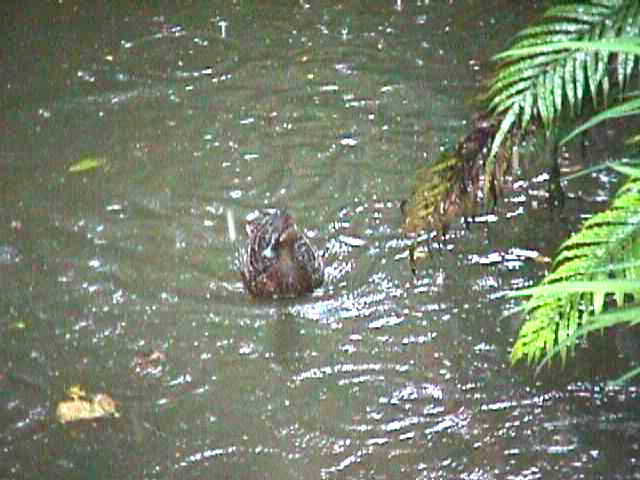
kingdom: Animalia
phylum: Chordata
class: Aves
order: Anseriformes
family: Anatidae
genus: Anas
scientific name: Anas
